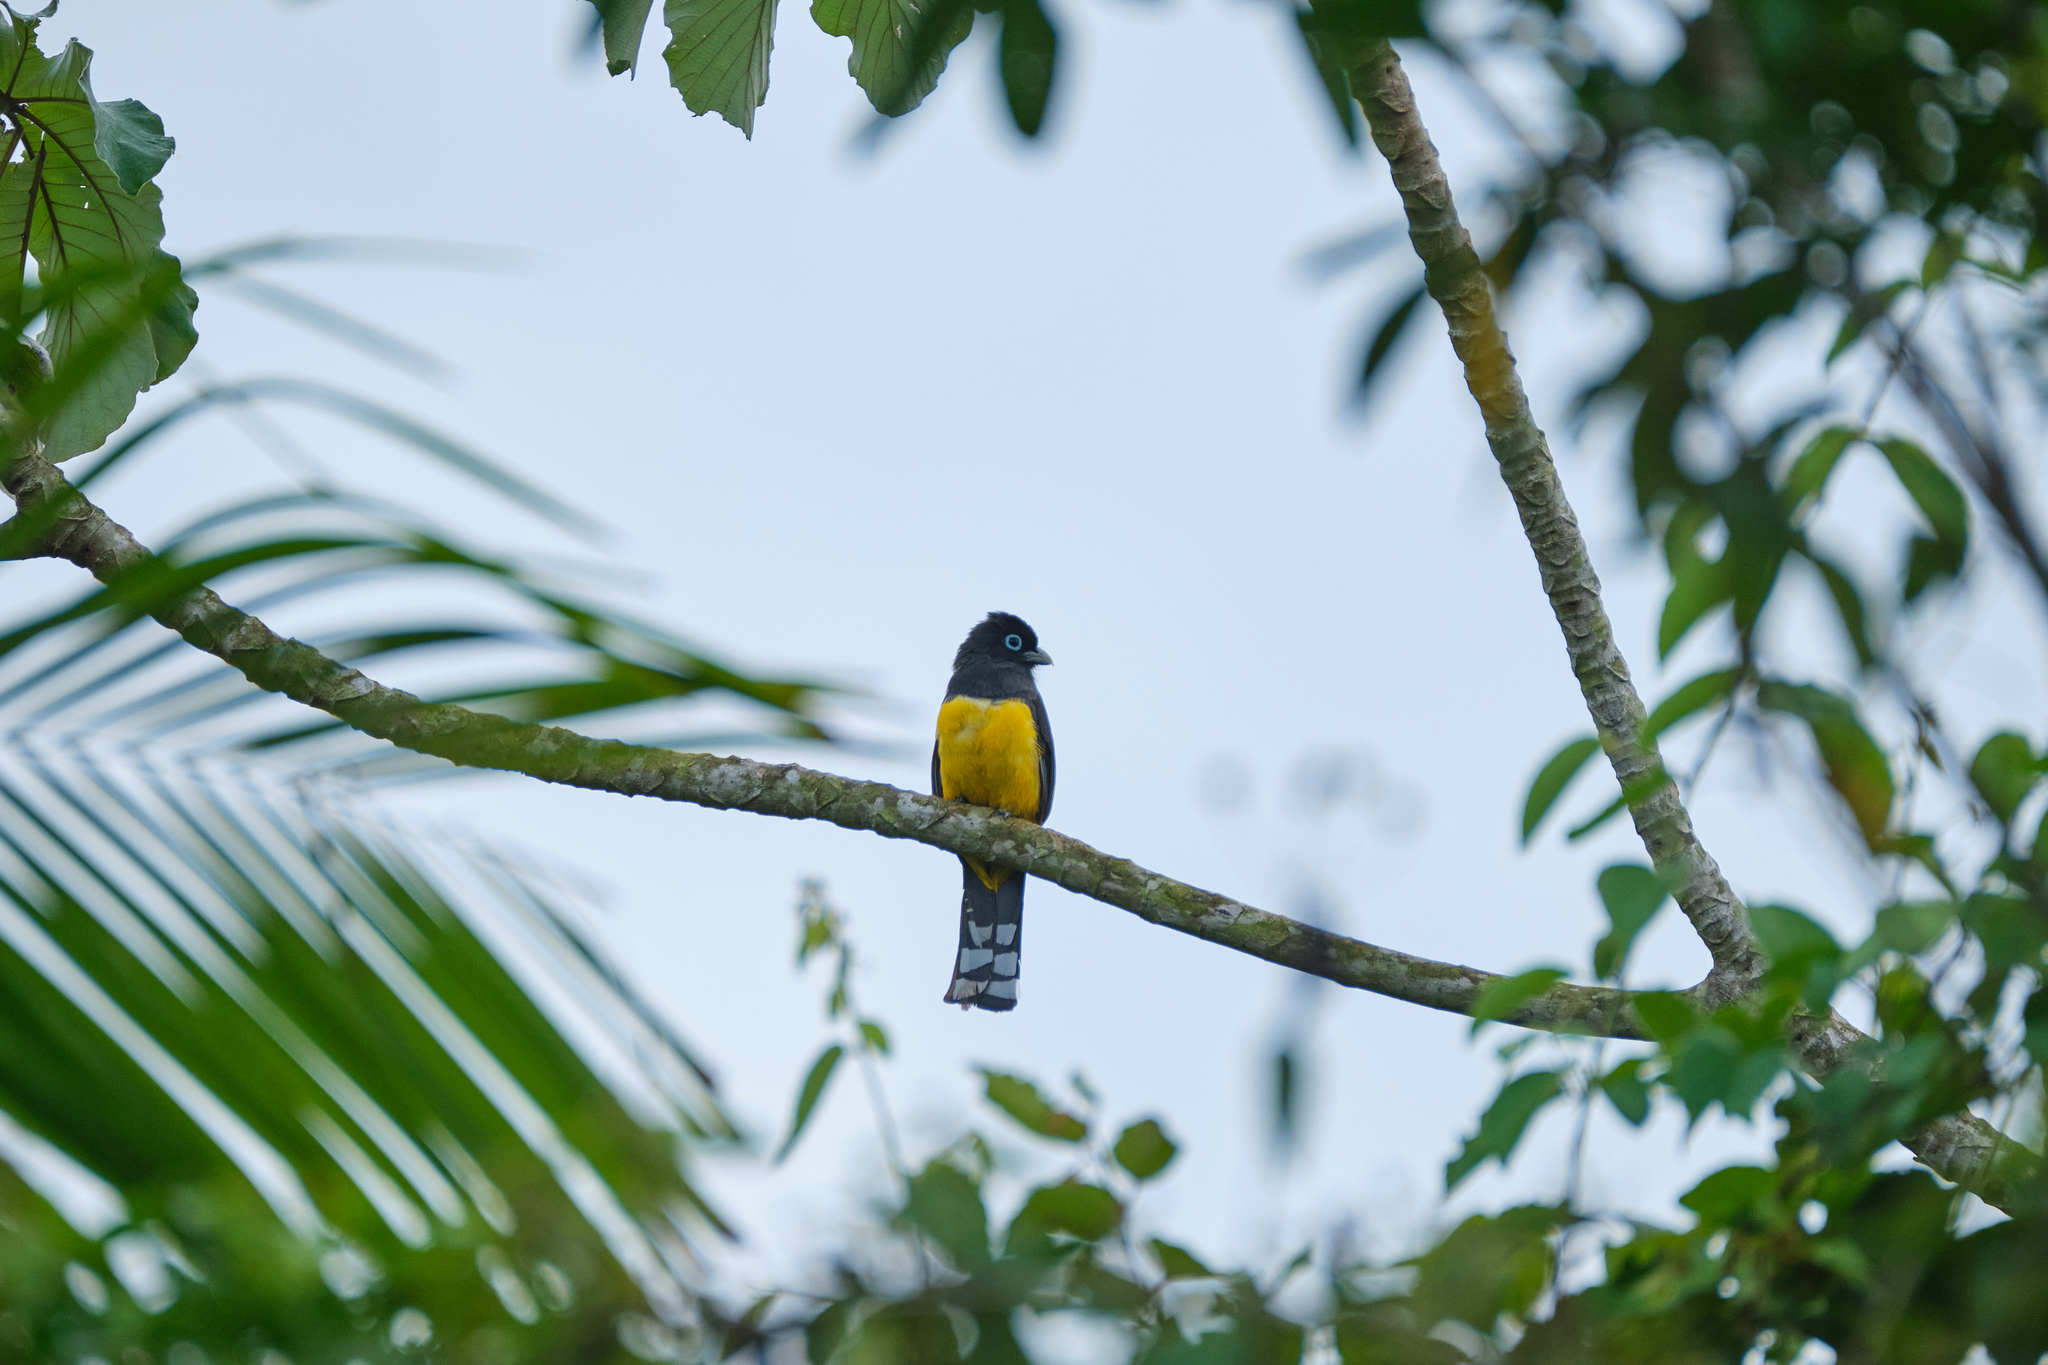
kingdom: Animalia
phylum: Chordata
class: Aves
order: Trogoniformes
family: Trogonidae
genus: Trogon
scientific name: Trogon melanocephalus
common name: Black-headed trogon
